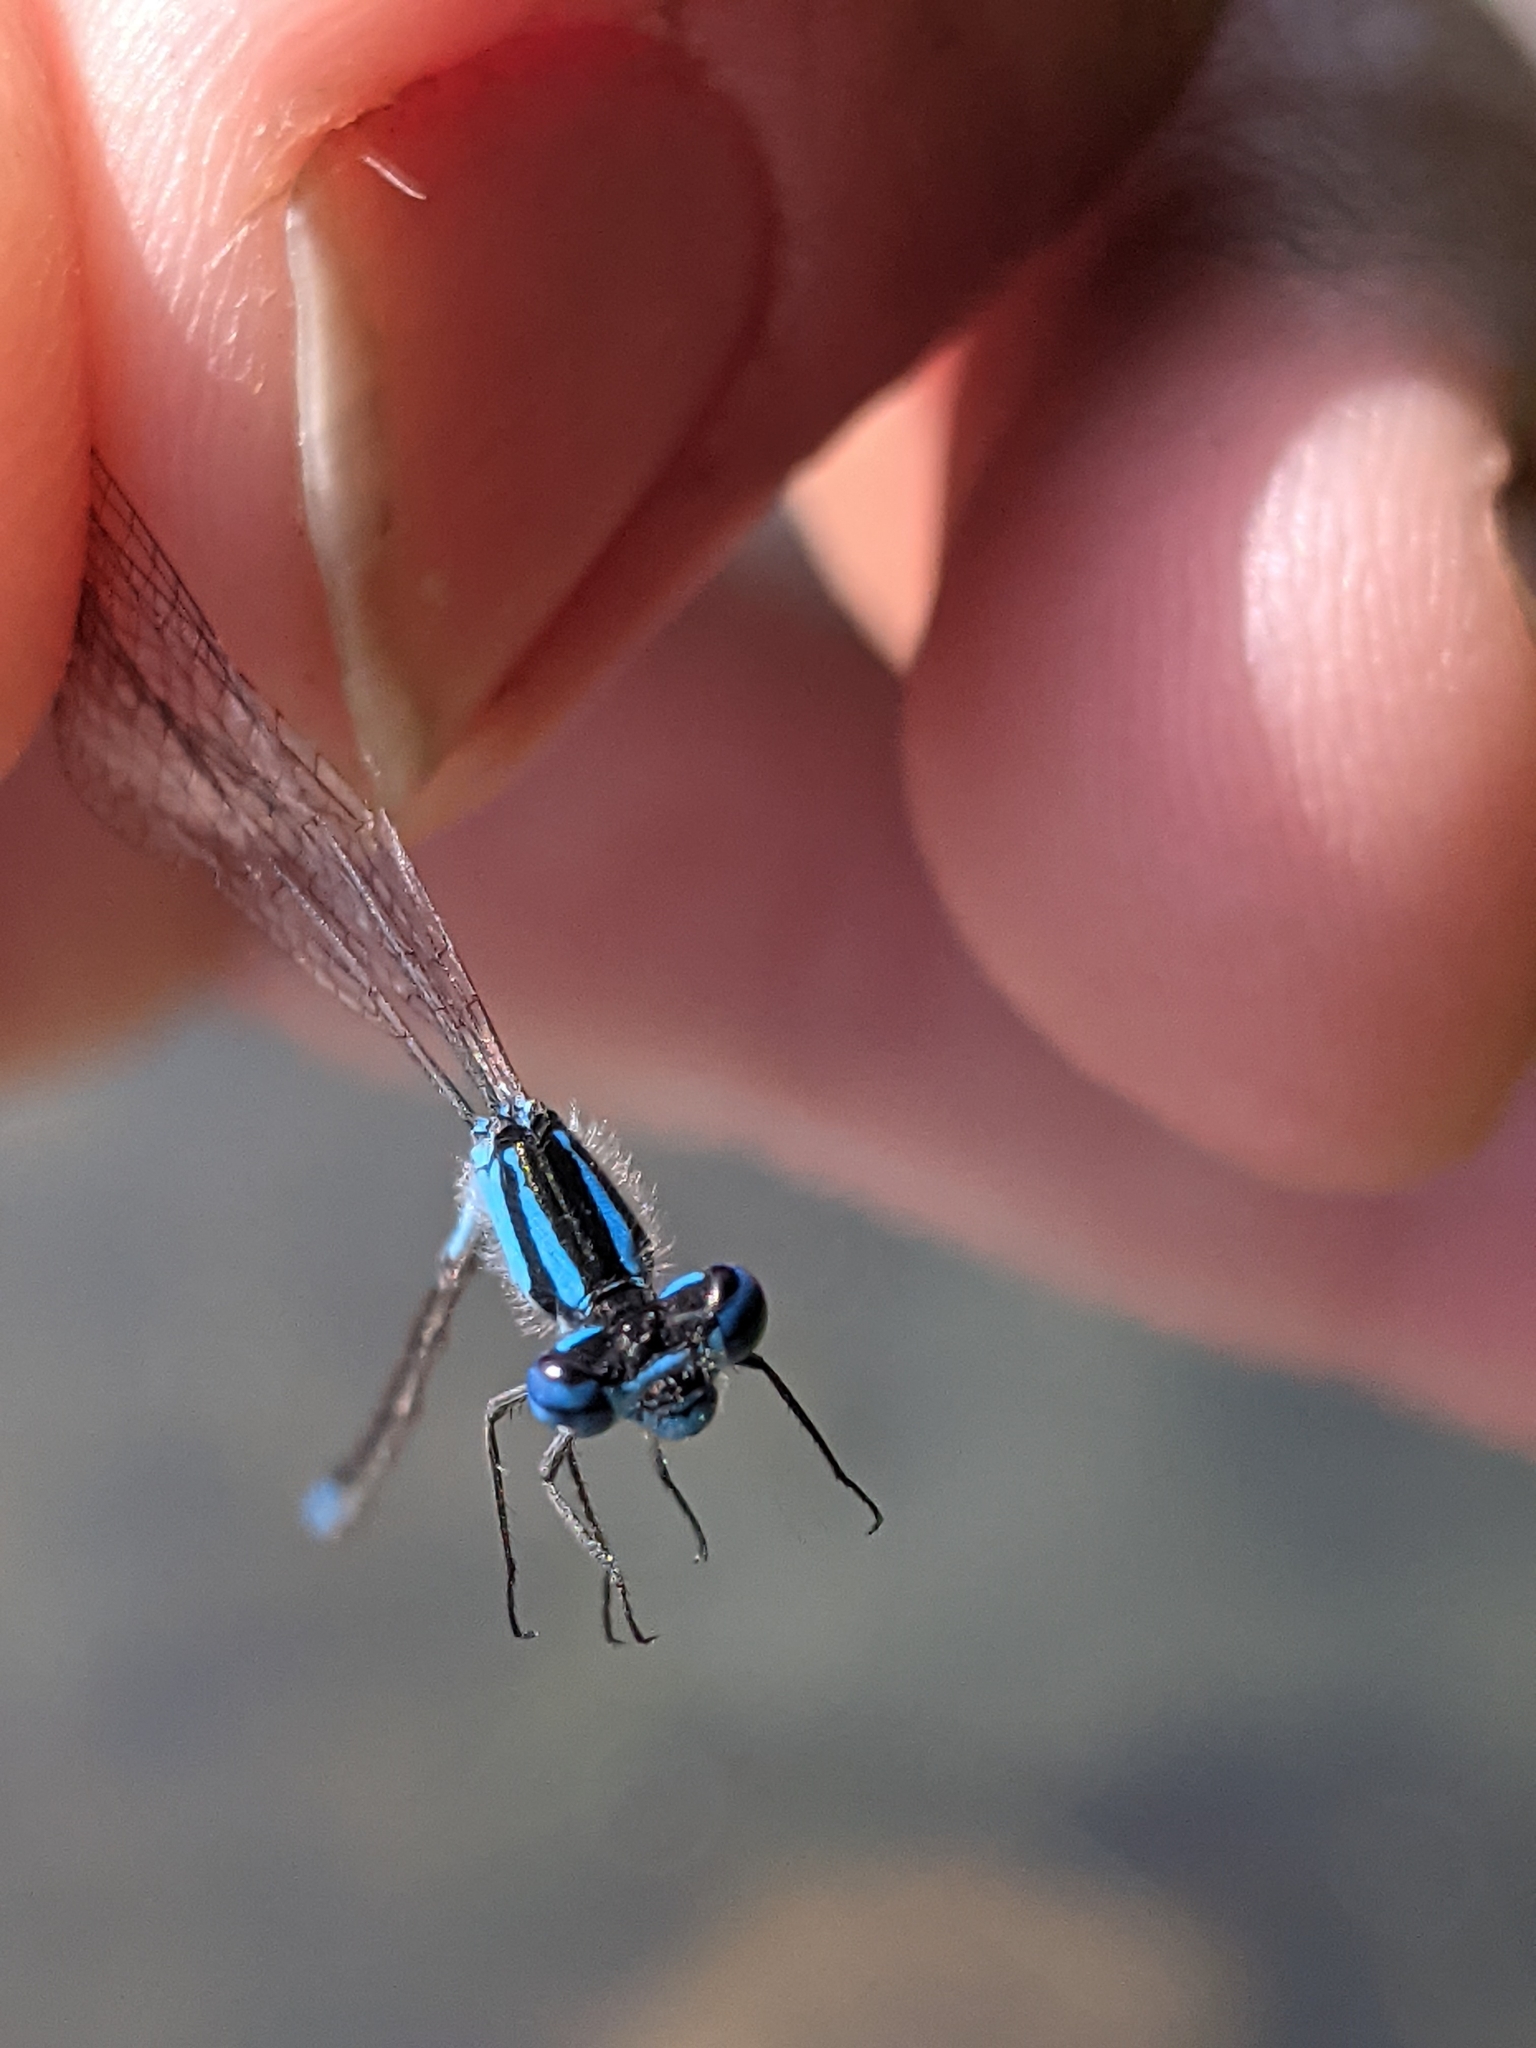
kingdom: Animalia
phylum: Arthropoda
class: Insecta
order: Odonata
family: Coenagrionidae
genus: Enallagma
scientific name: Enallagma aspersum
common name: Azure bluet
